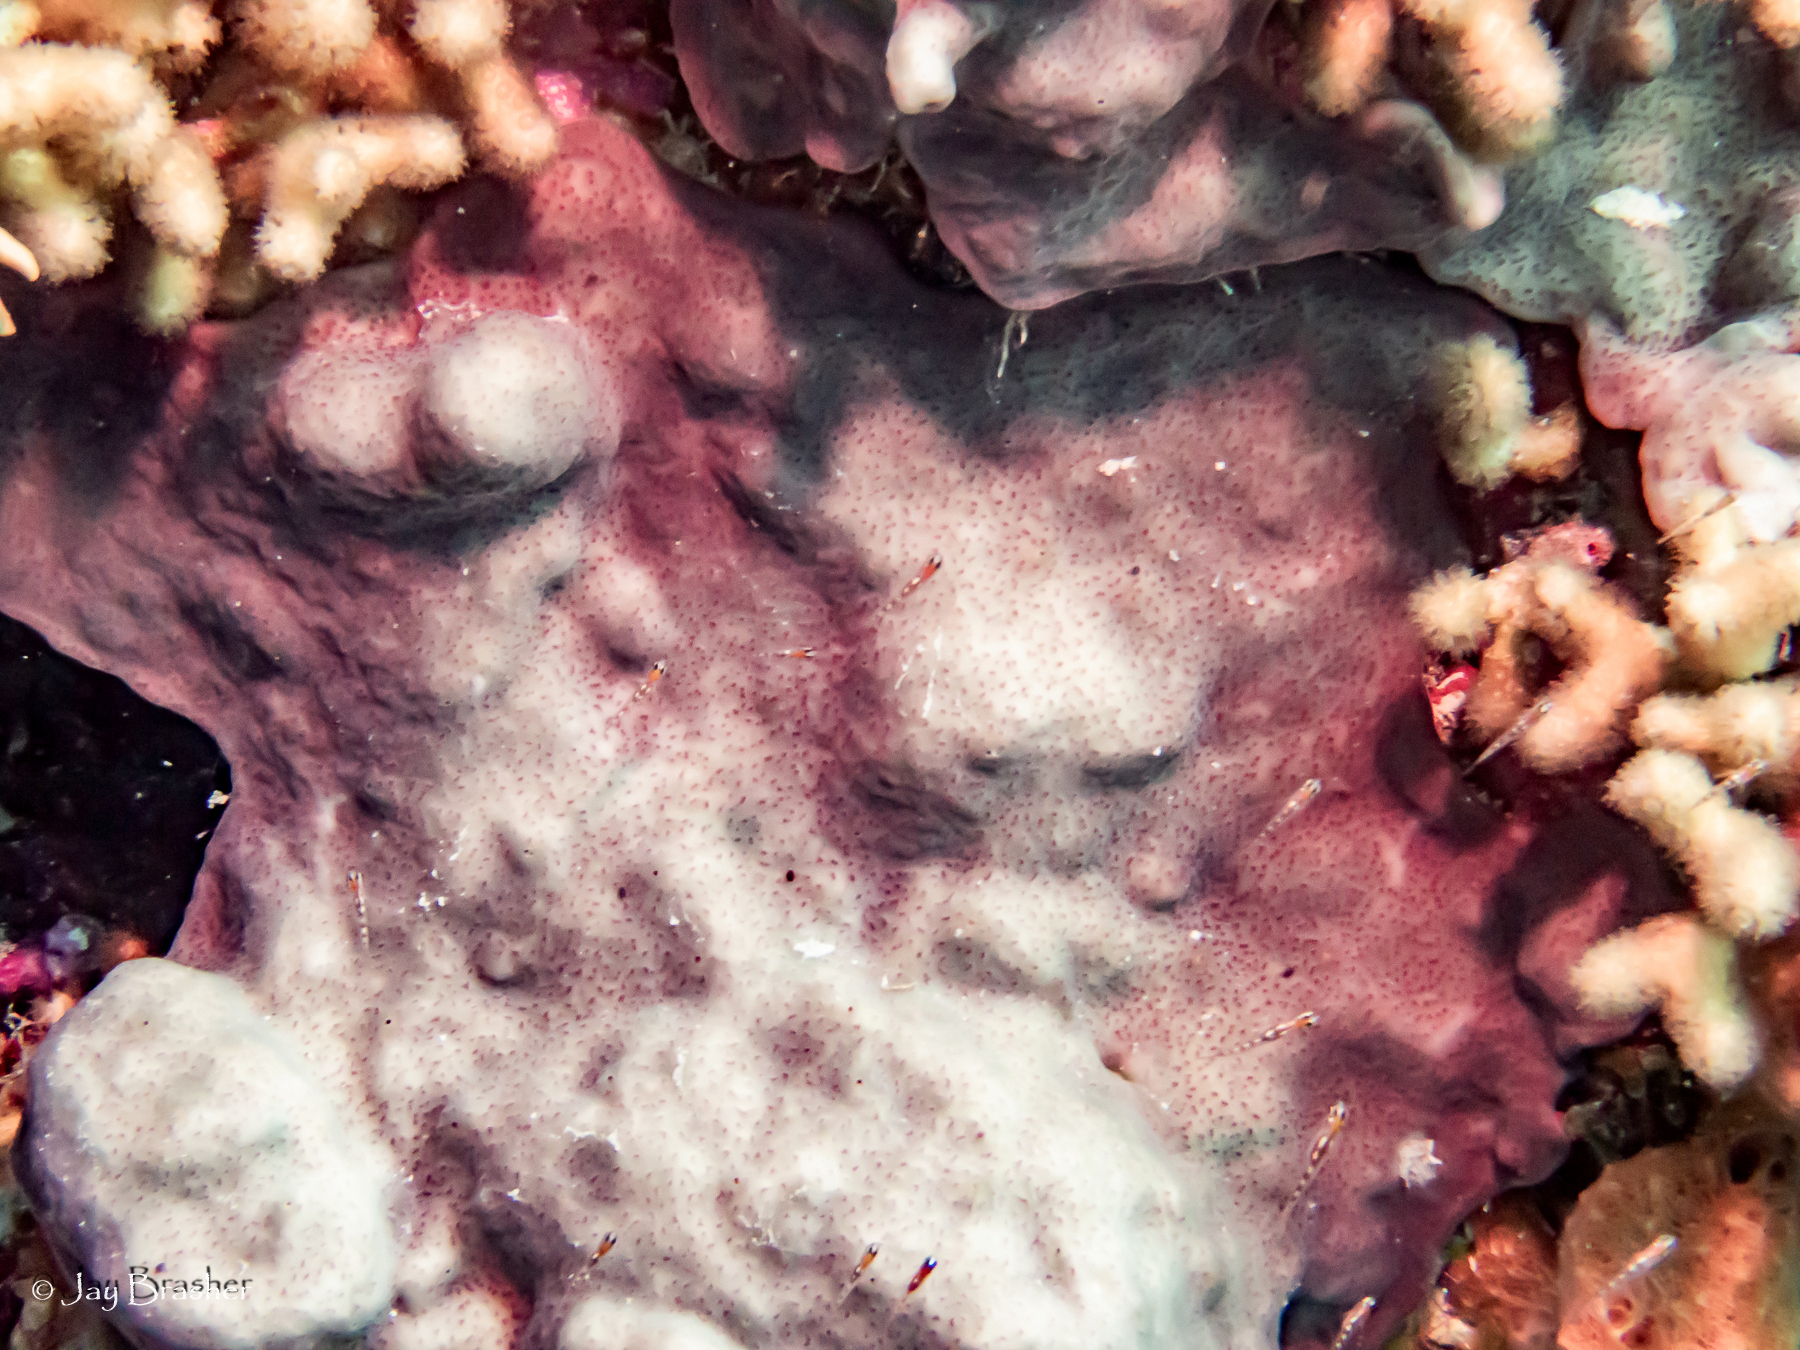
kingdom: Animalia
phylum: Chordata
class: Ascidiacea
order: Aplousobranchia
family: Didemnidae
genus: Trididemnum
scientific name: Trididemnum solidum
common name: Overgrowing mat tunicate
